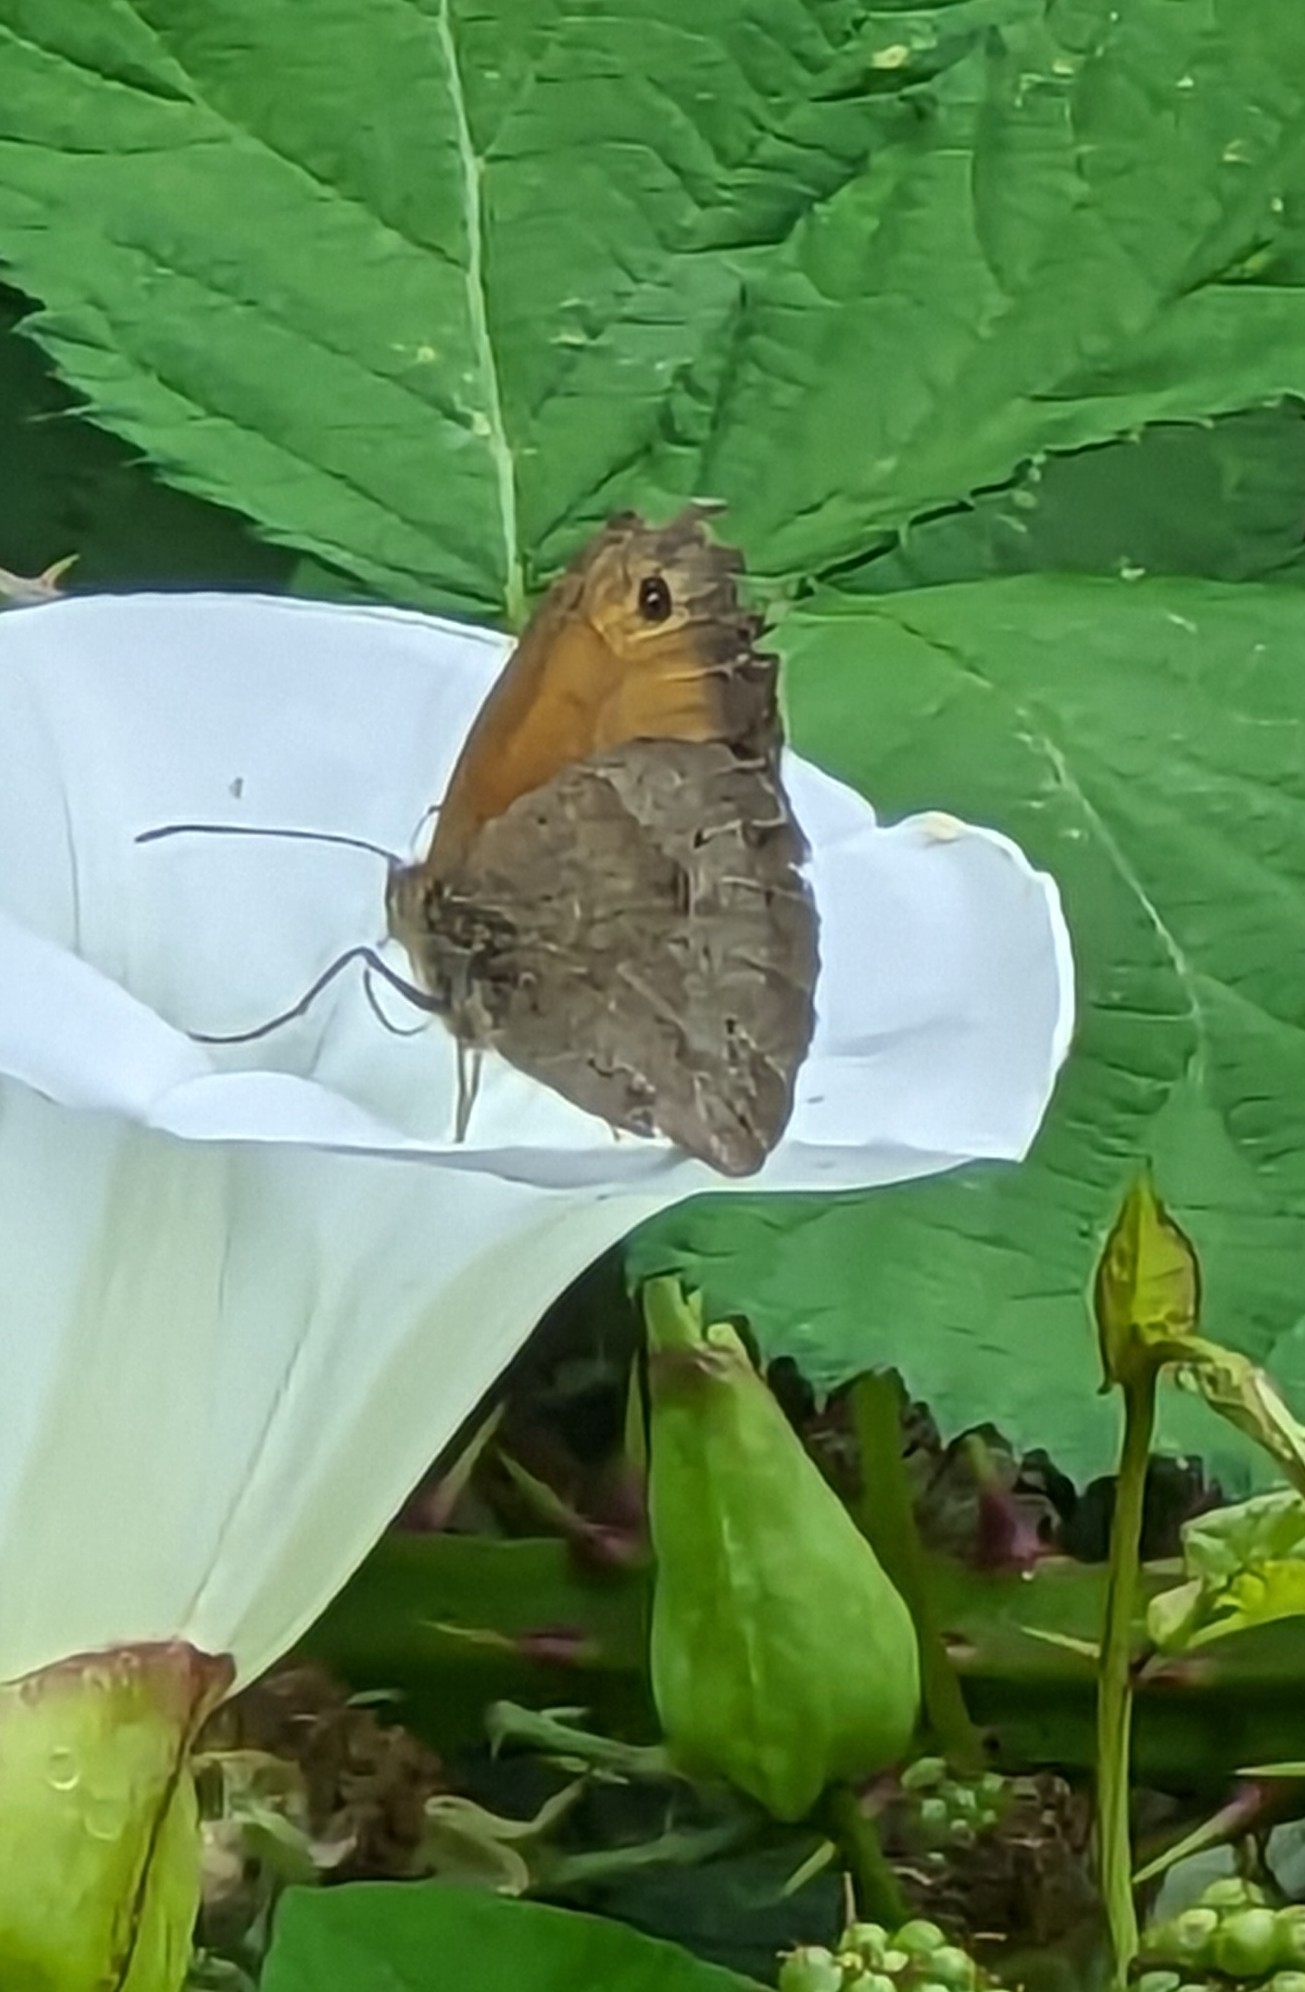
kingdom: Animalia
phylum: Arthropoda
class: Insecta
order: Lepidoptera
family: Nymphalidae
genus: Maniola
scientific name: Maniola jurtina
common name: Meadow brown
